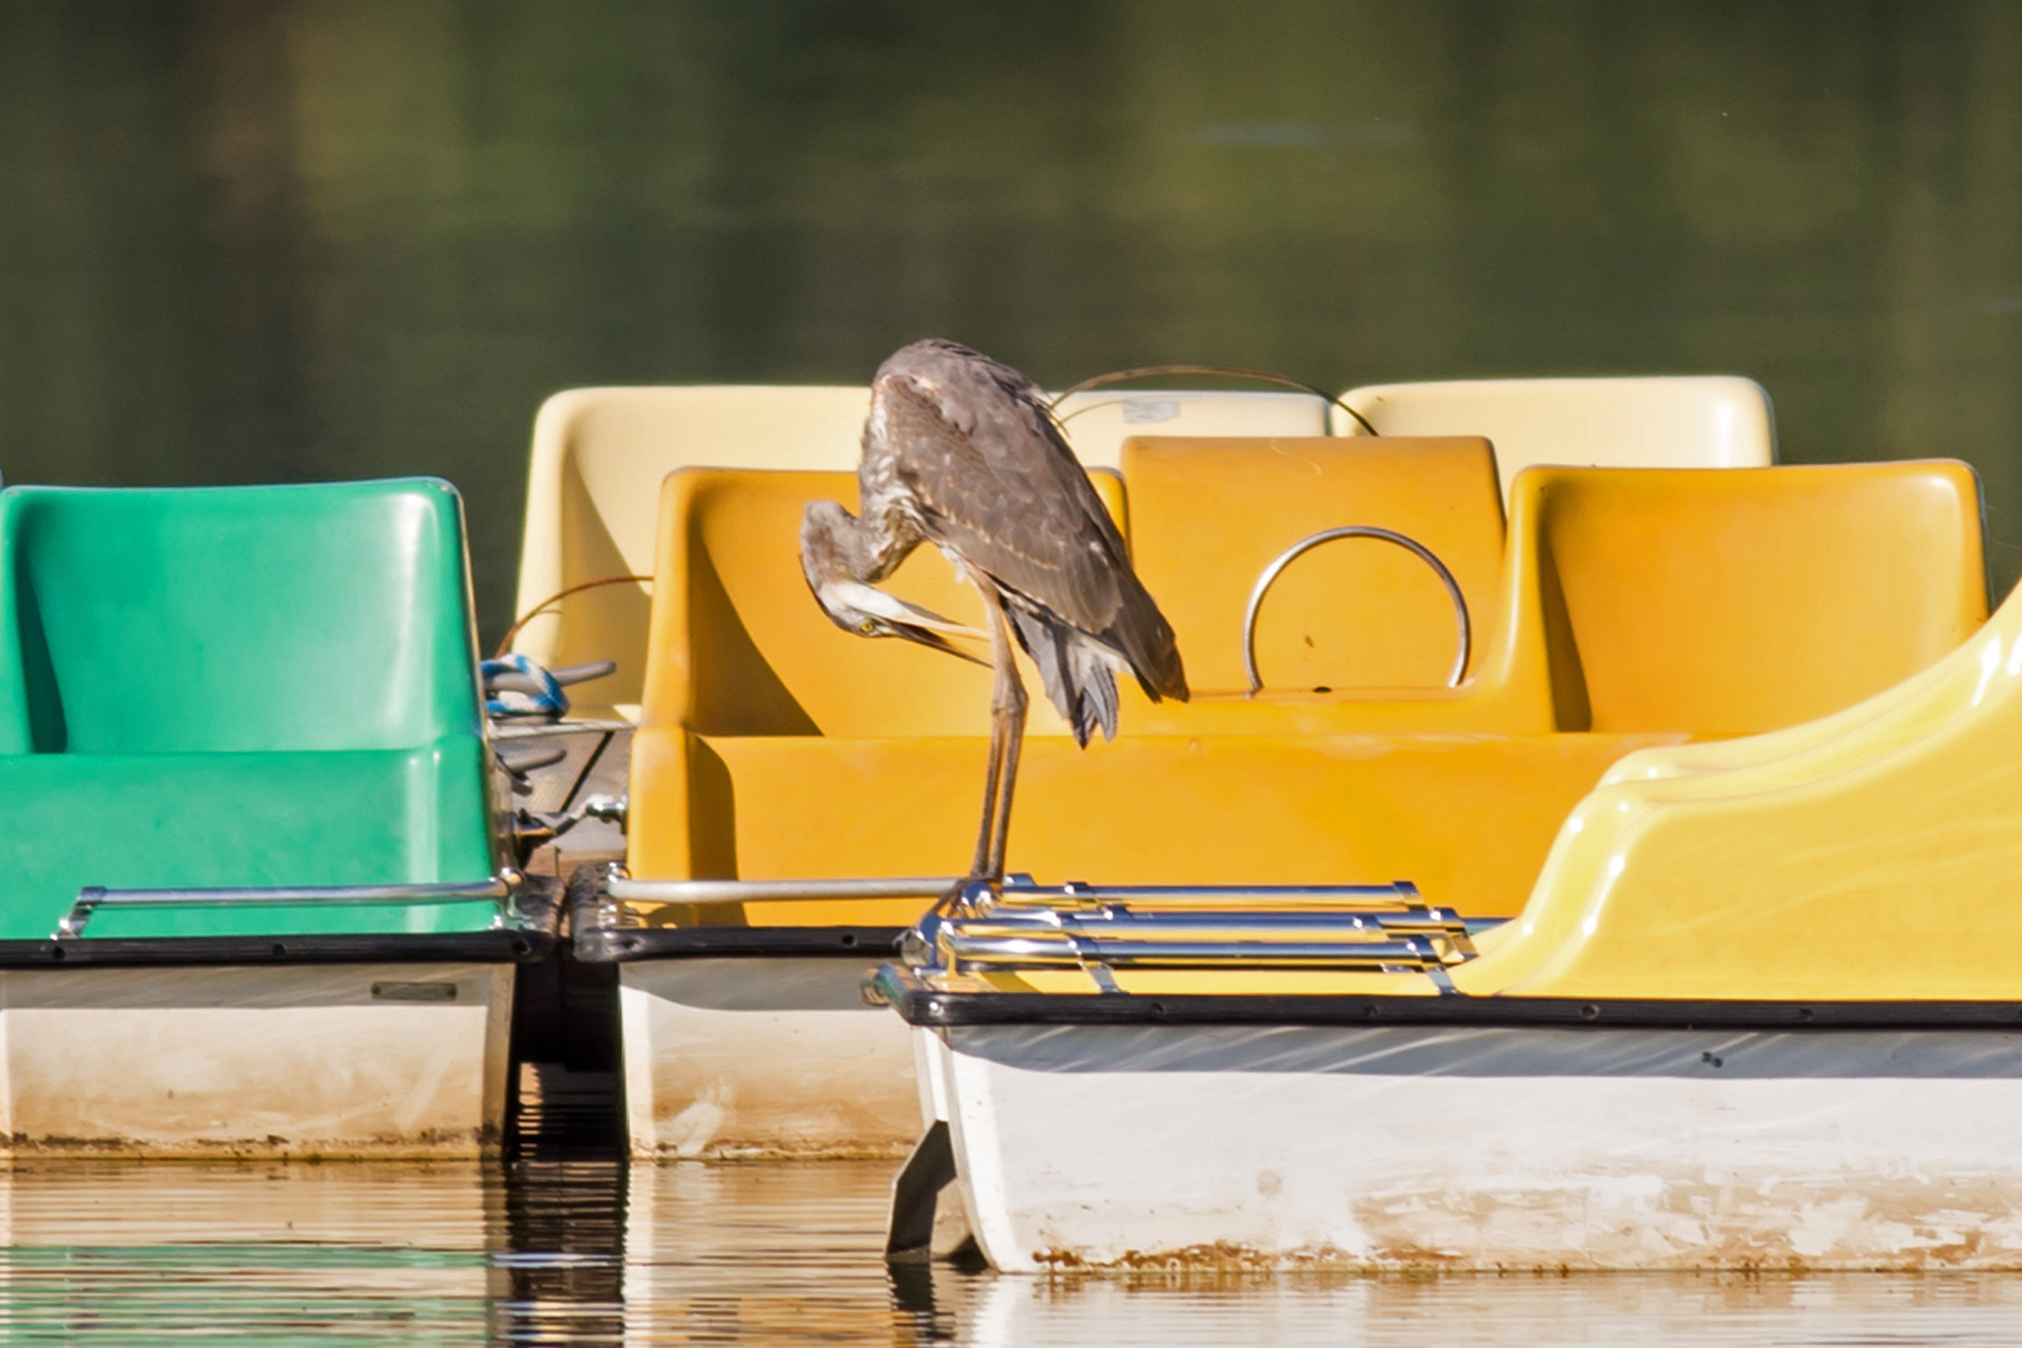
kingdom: Animalia
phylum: Chordata
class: Aves
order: Pelecaniformes
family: Ardeidae
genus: Ardea
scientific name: Ardea herodias
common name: Great blue heron
